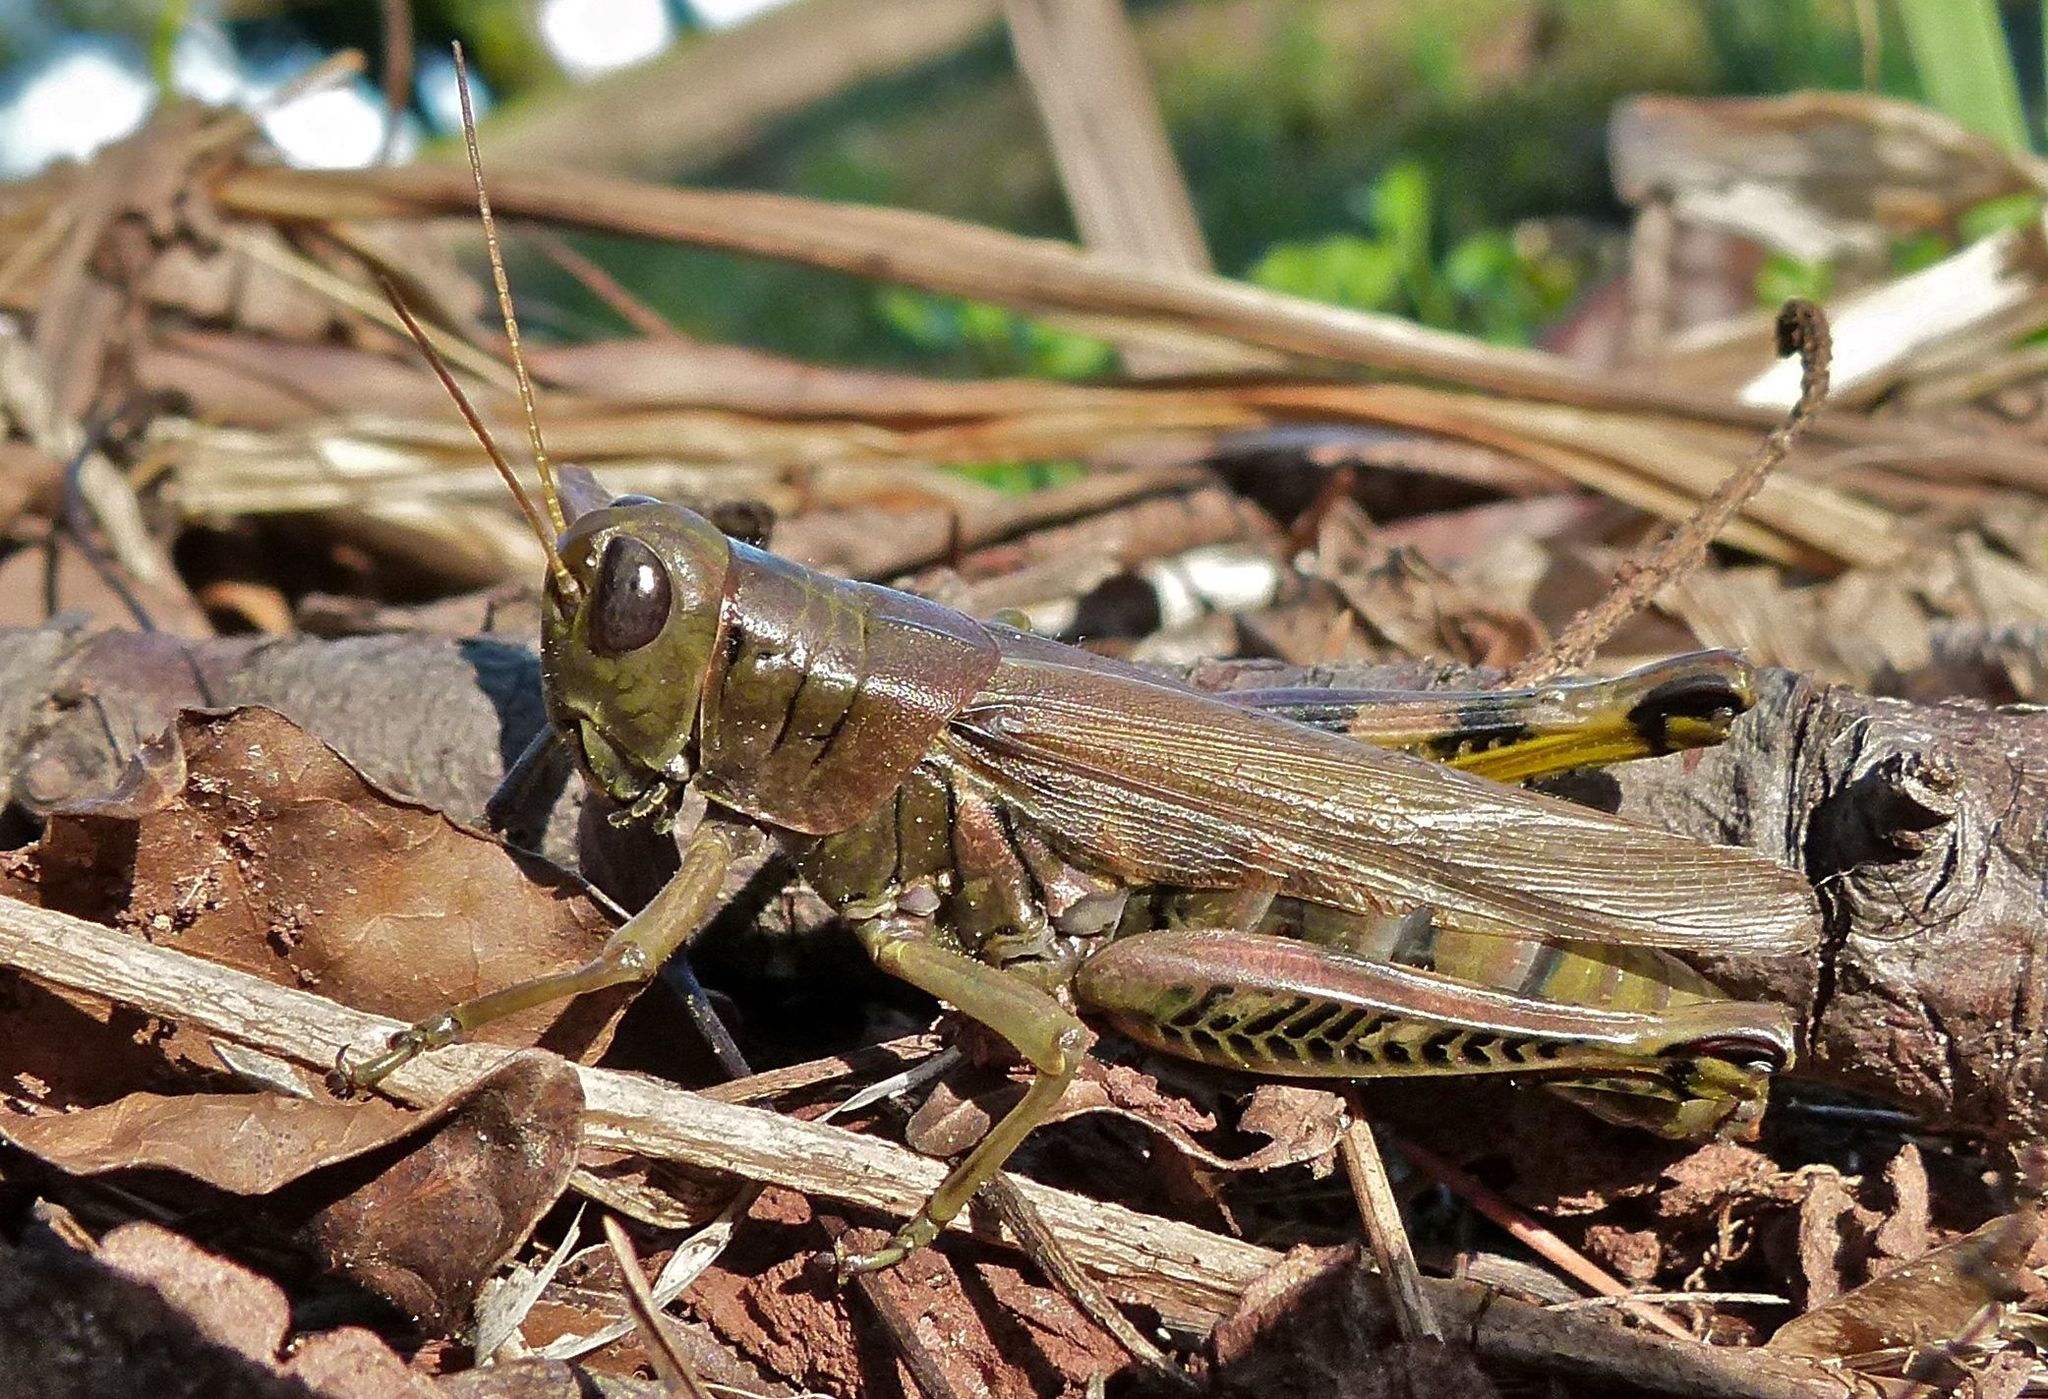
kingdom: Animalia
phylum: Arthropoda
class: Insecta
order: Orthoptera
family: Acrididae
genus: Melanoplus
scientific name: Melanoplus differentialis
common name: Differential grasshopper
